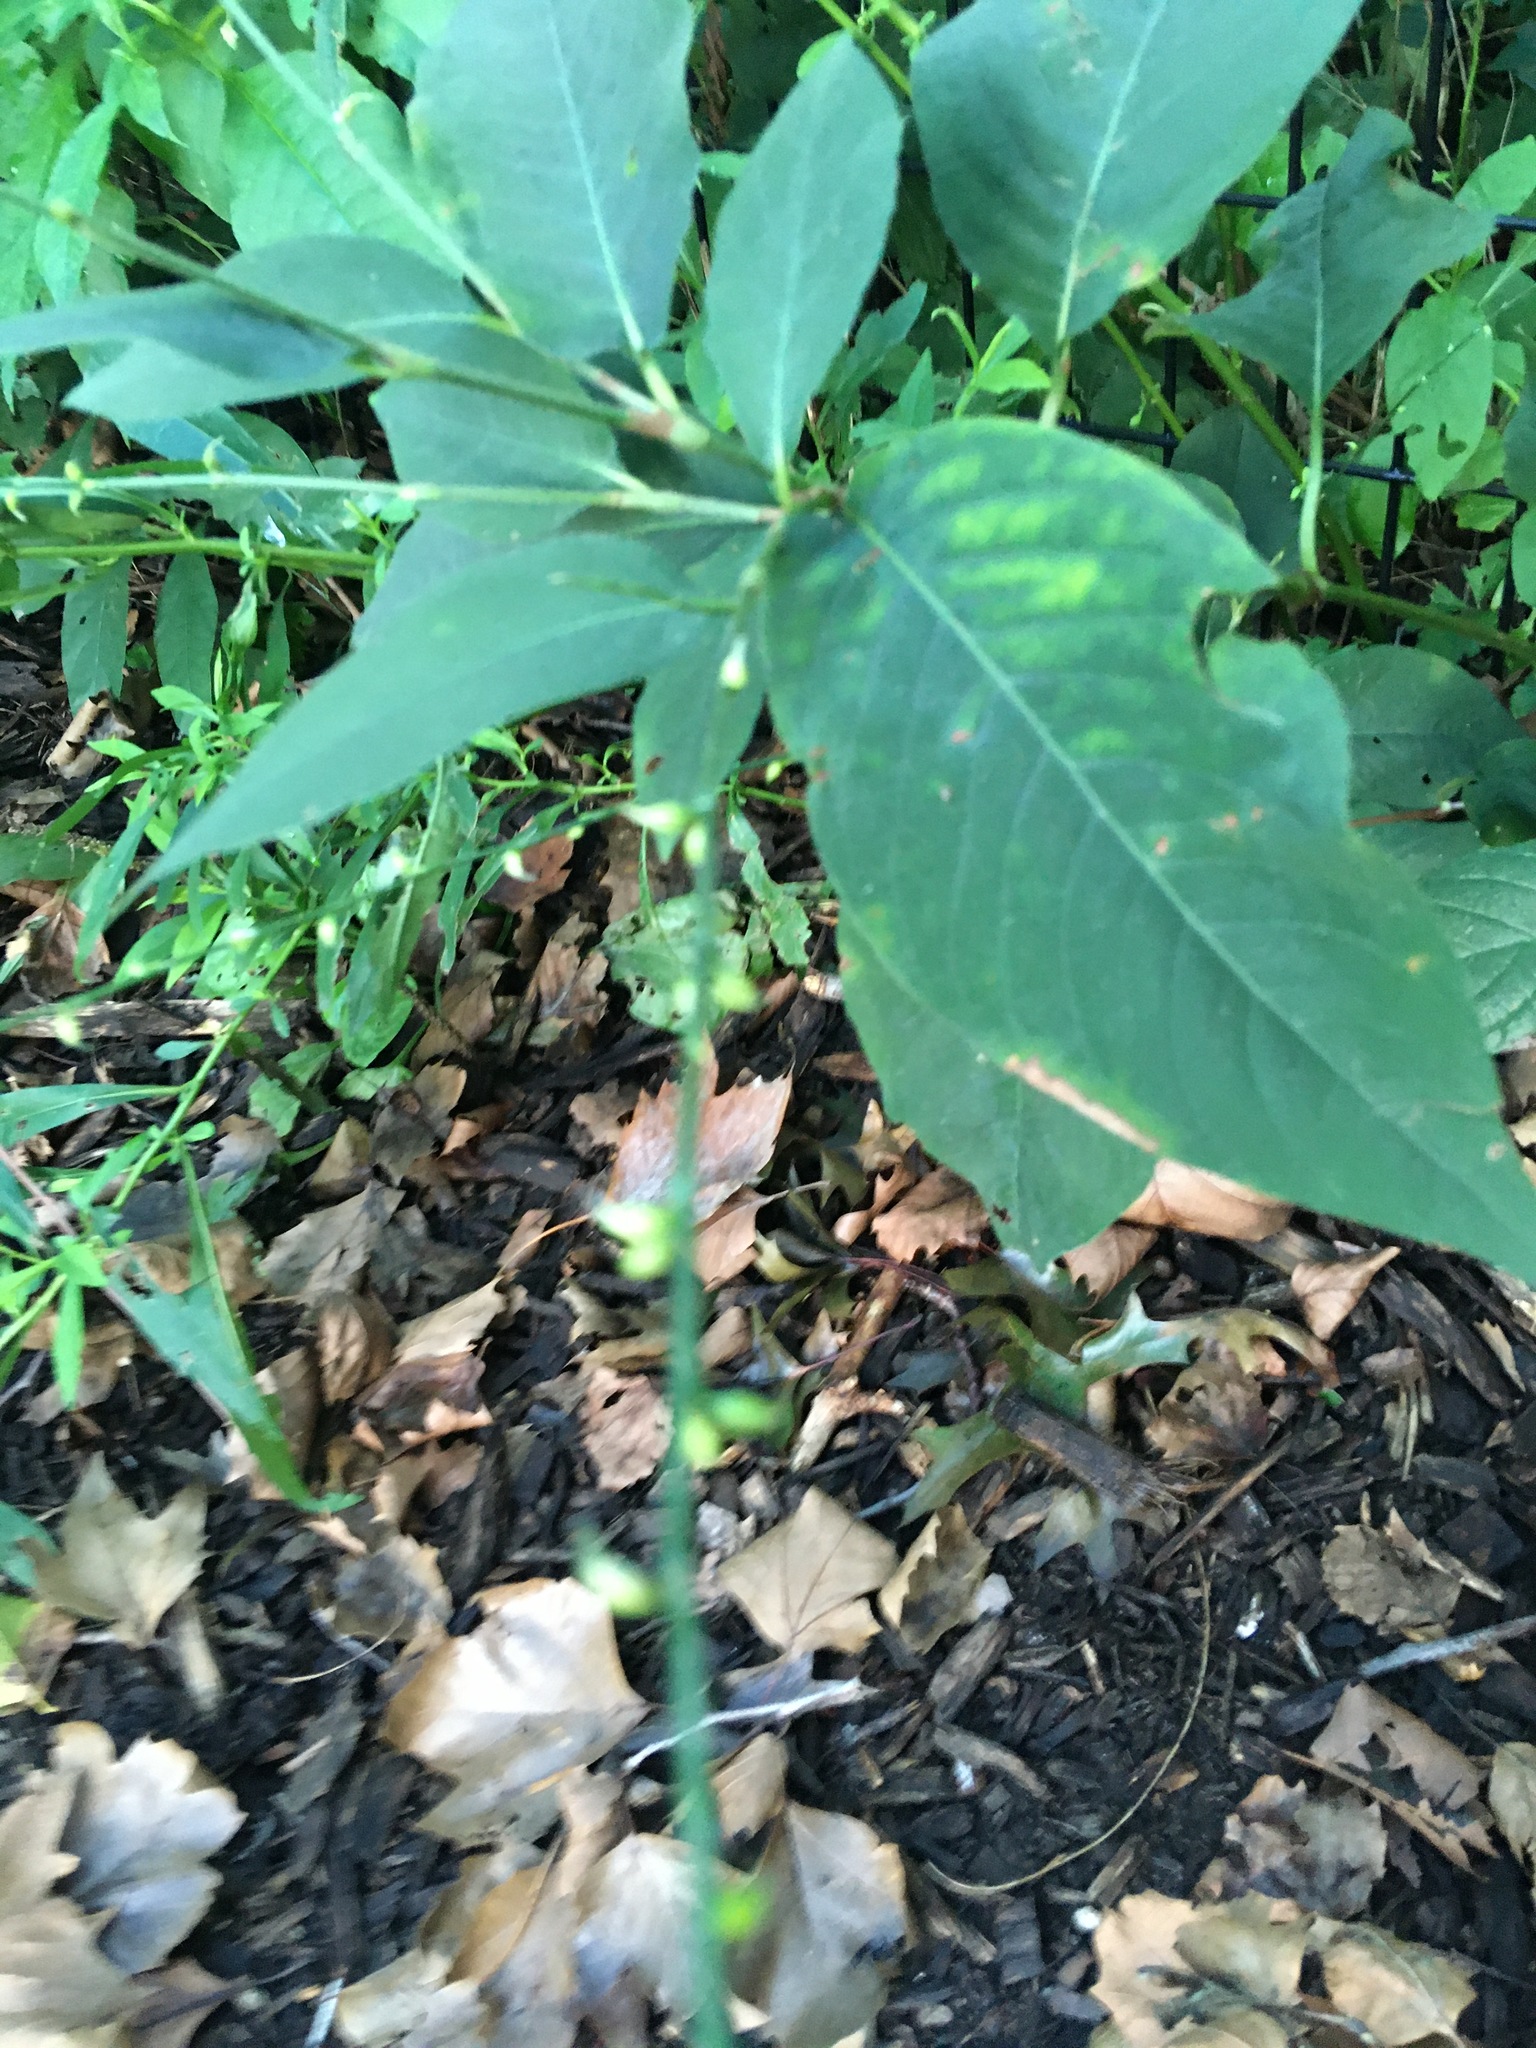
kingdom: Plantae
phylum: Tracheophyta
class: Magnoliopsida
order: Caryophyllales
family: Polygonaceae
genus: Persicaria
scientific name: Persicaria virginiana
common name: Jumpseed
